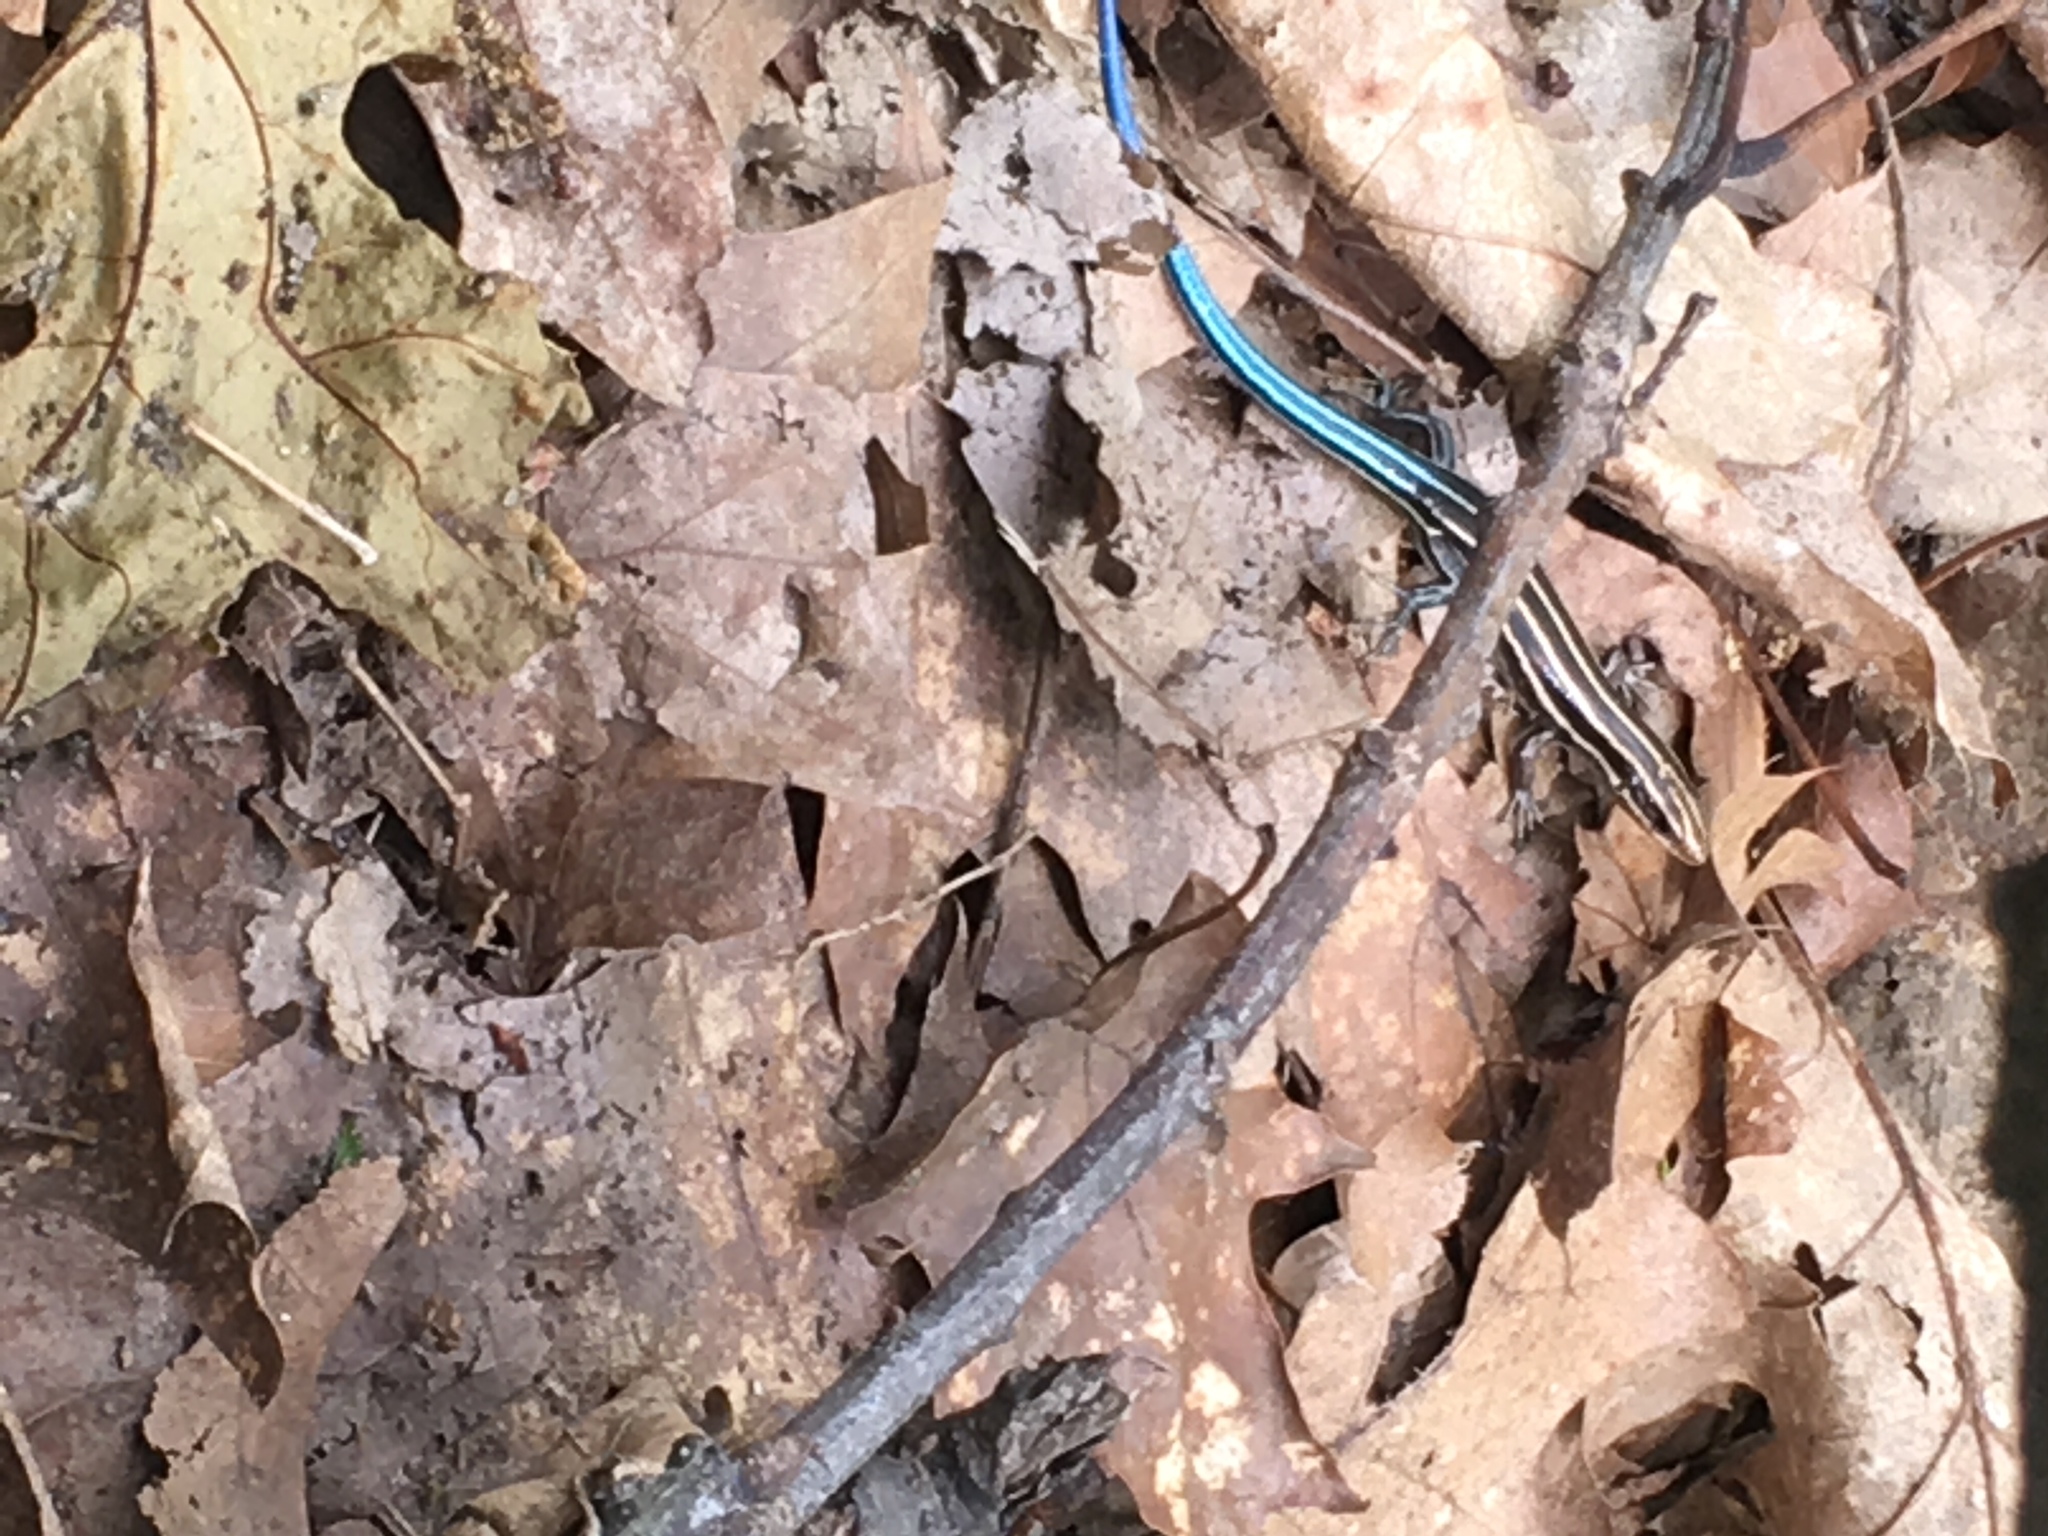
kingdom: Animalia
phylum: Chordata
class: Squamata
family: Scincidae
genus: Plestiodon
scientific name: Plestiodon fasciatus
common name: Five-lined skink
